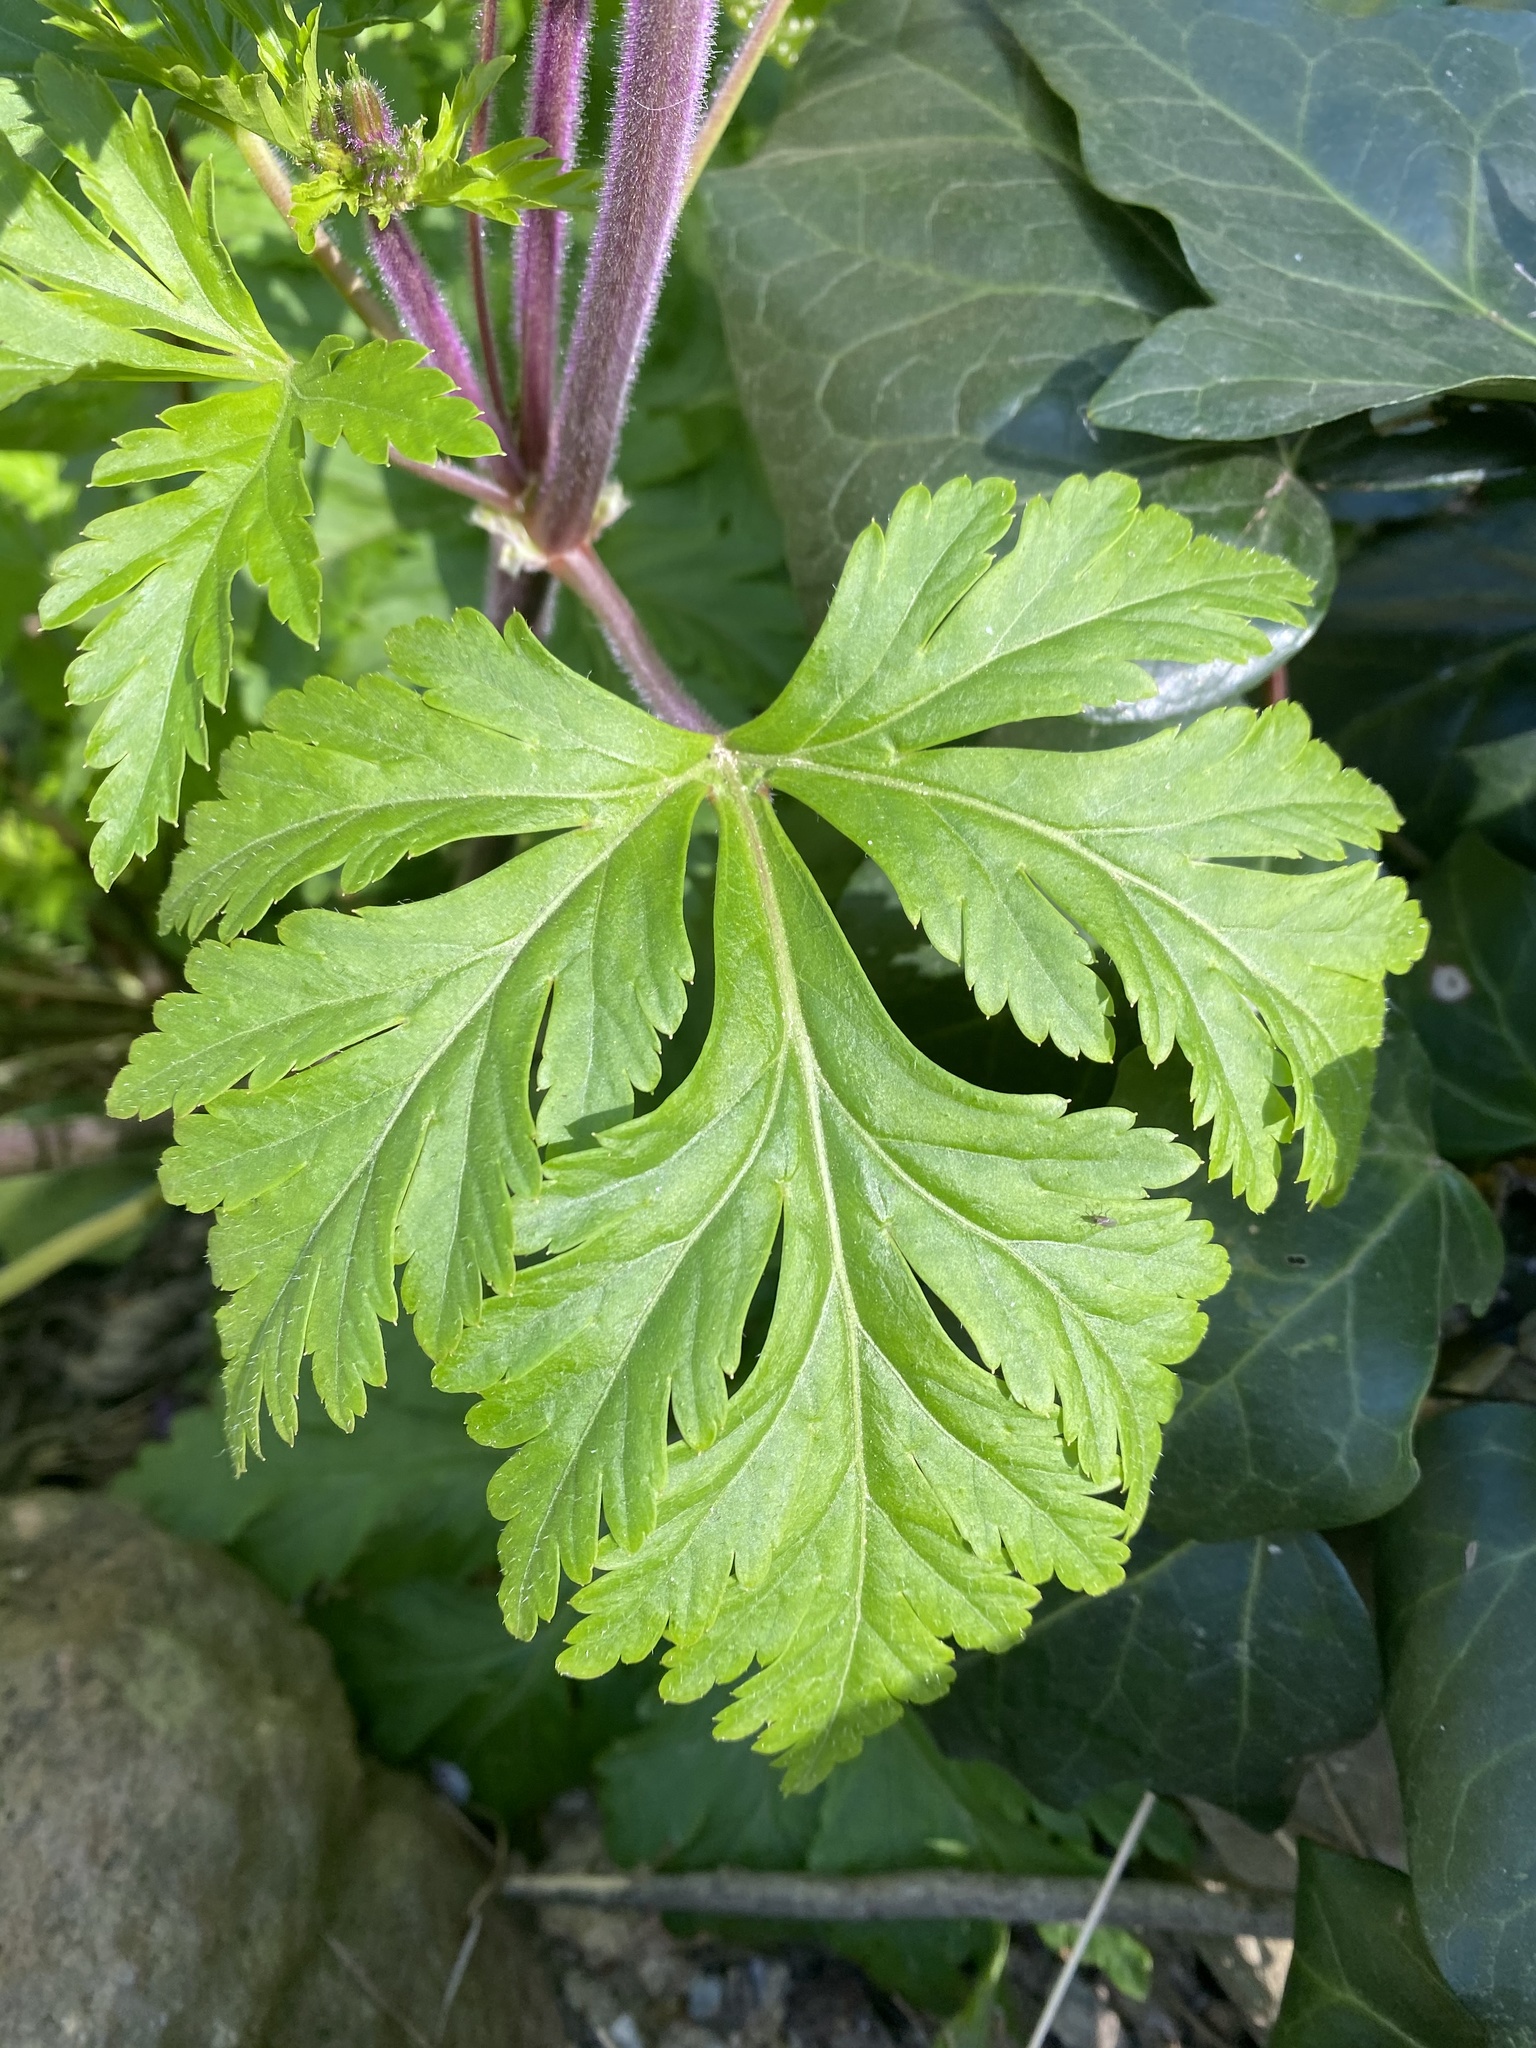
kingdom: Plantae
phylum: Tracheophyta
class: Magnoliopsida
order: Geraniales
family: Geraniaceae
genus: Geranium
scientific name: Geranium reuteri
